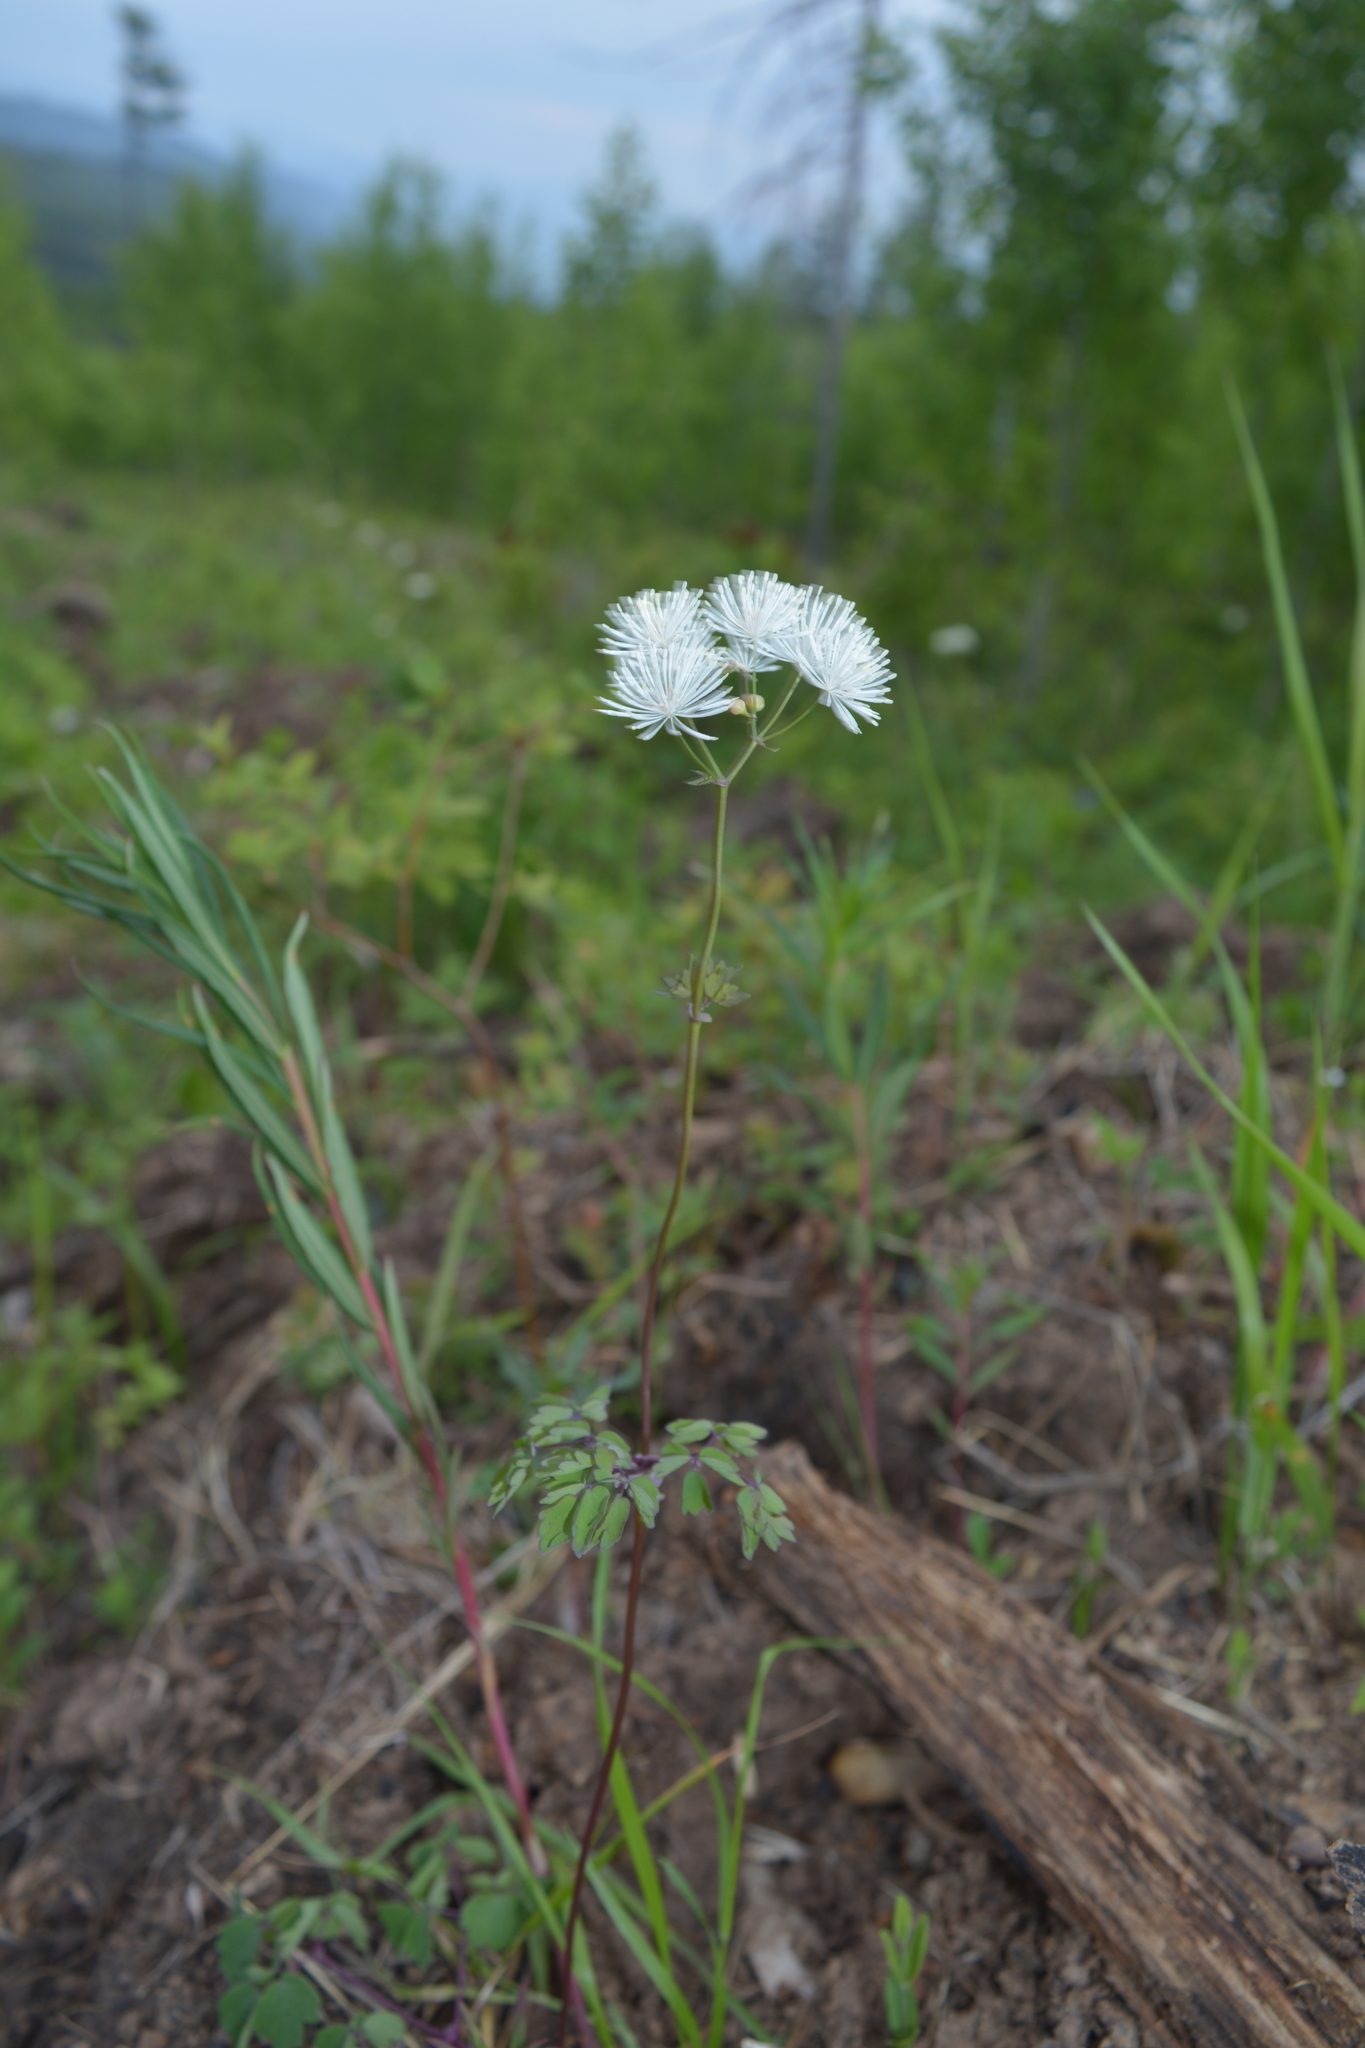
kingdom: Plantae
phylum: Tracheophyta
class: Magnoliopsida
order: Ranunculales
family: Ranunculaceae
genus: Thalictrum
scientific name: Thalictrum petaloideum
